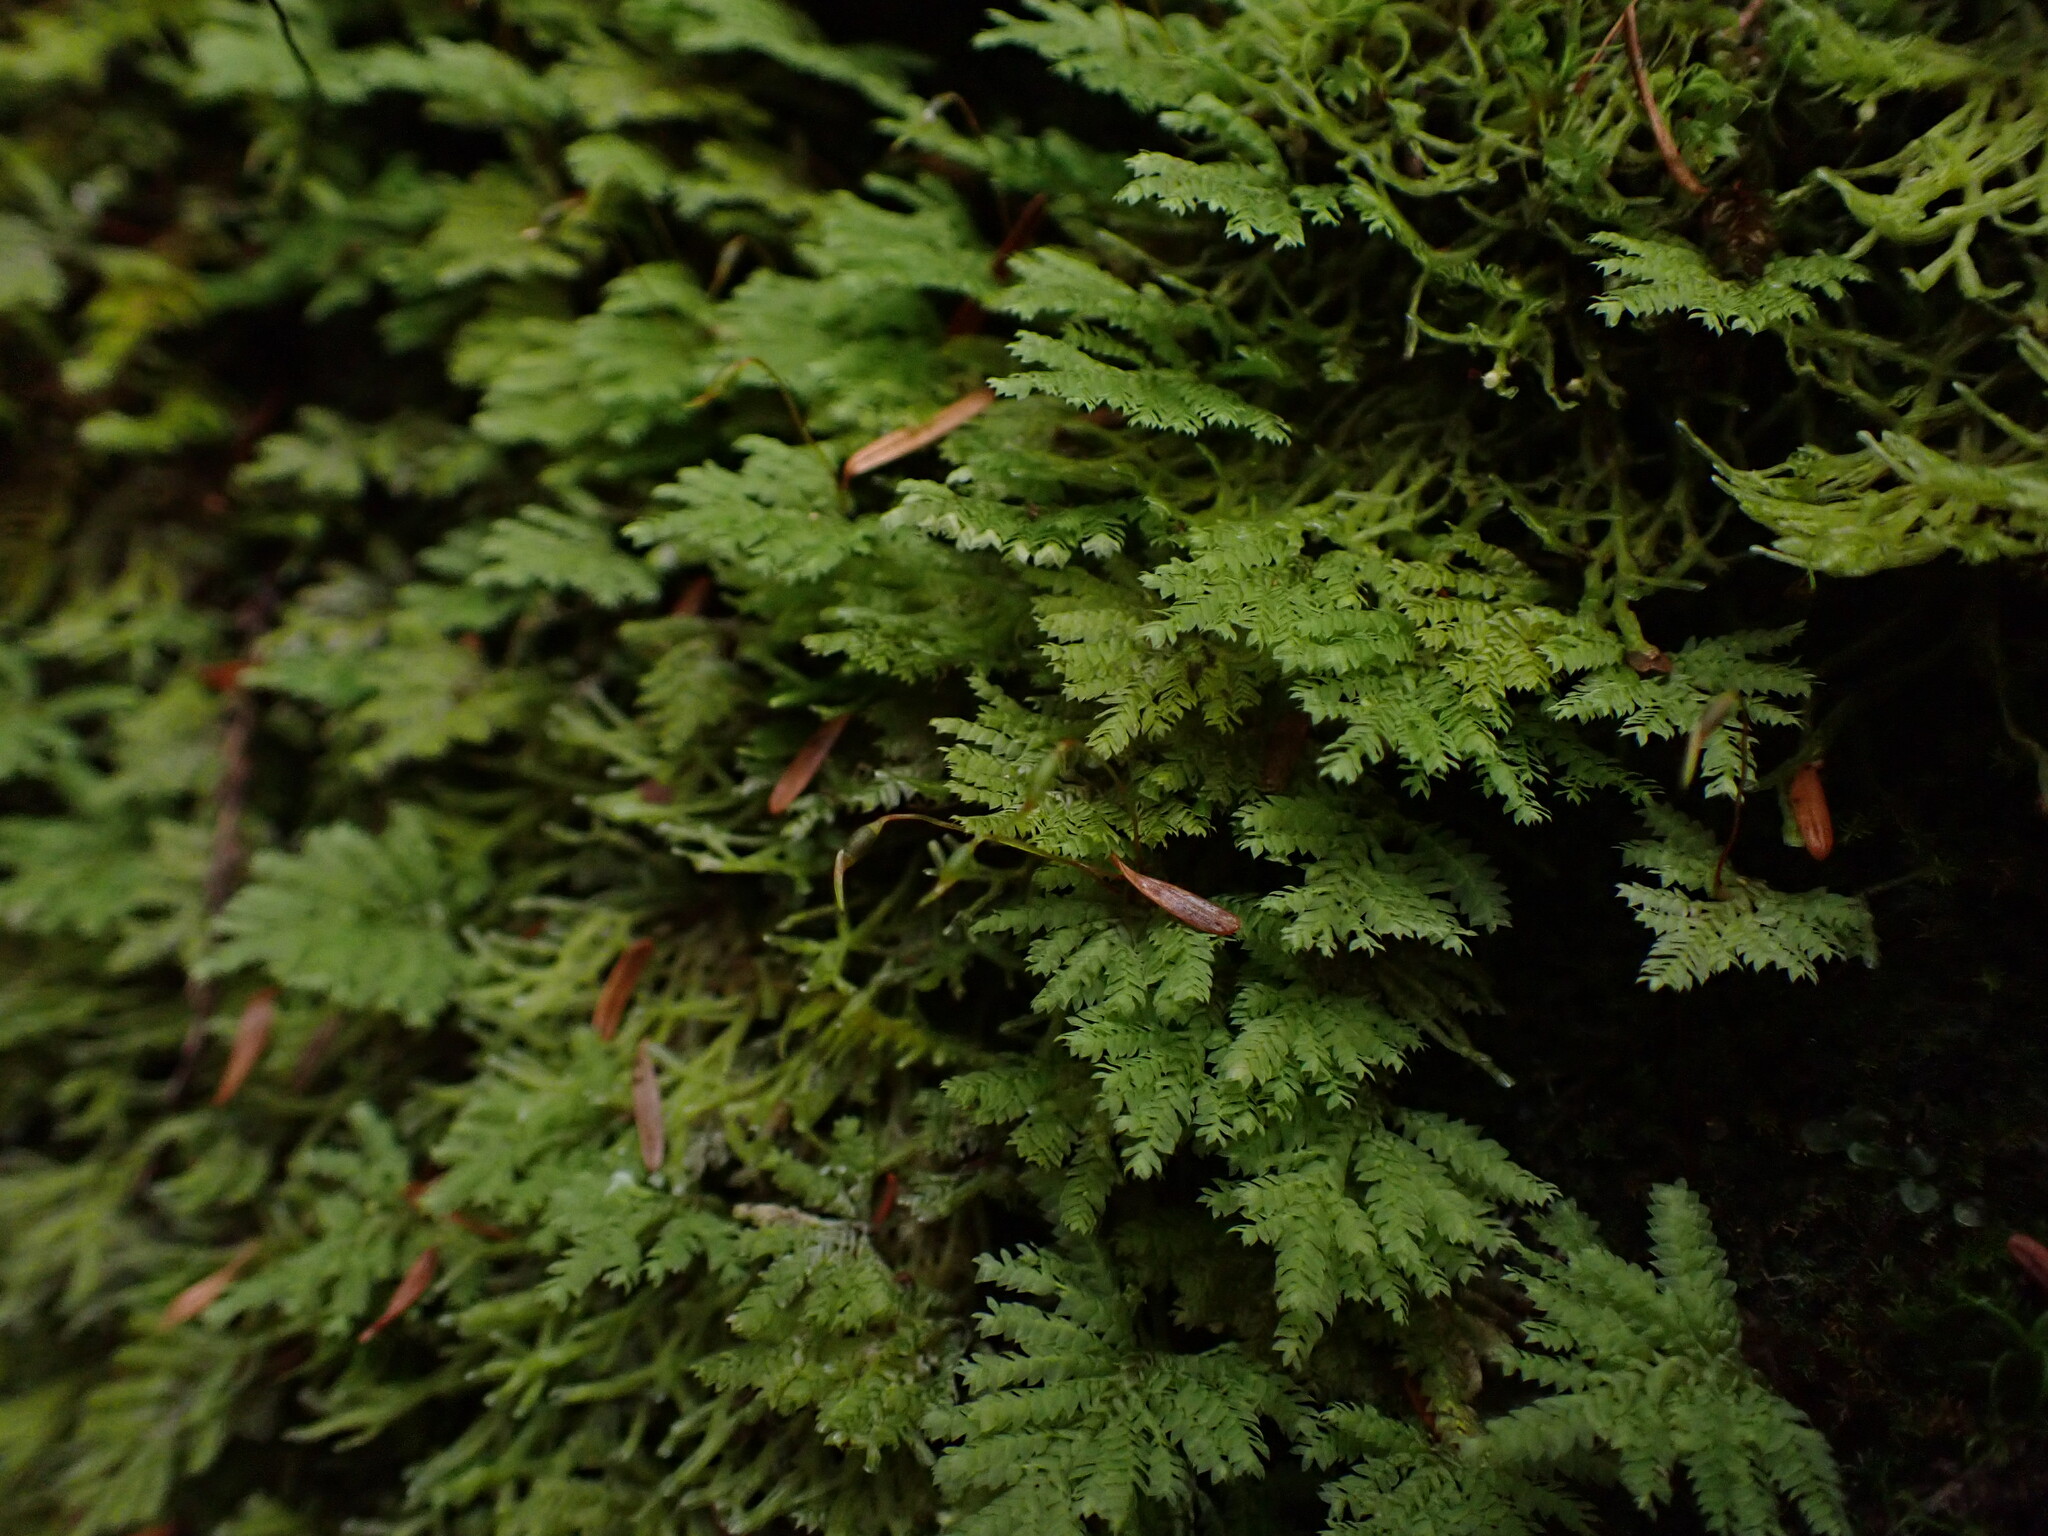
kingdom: Plantae
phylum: Bryophyta
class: Bryopsida
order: Hypopterygiales
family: Hypopterygiaceae
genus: Hypopterygium
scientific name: Hypopterygium flavolimbatum
